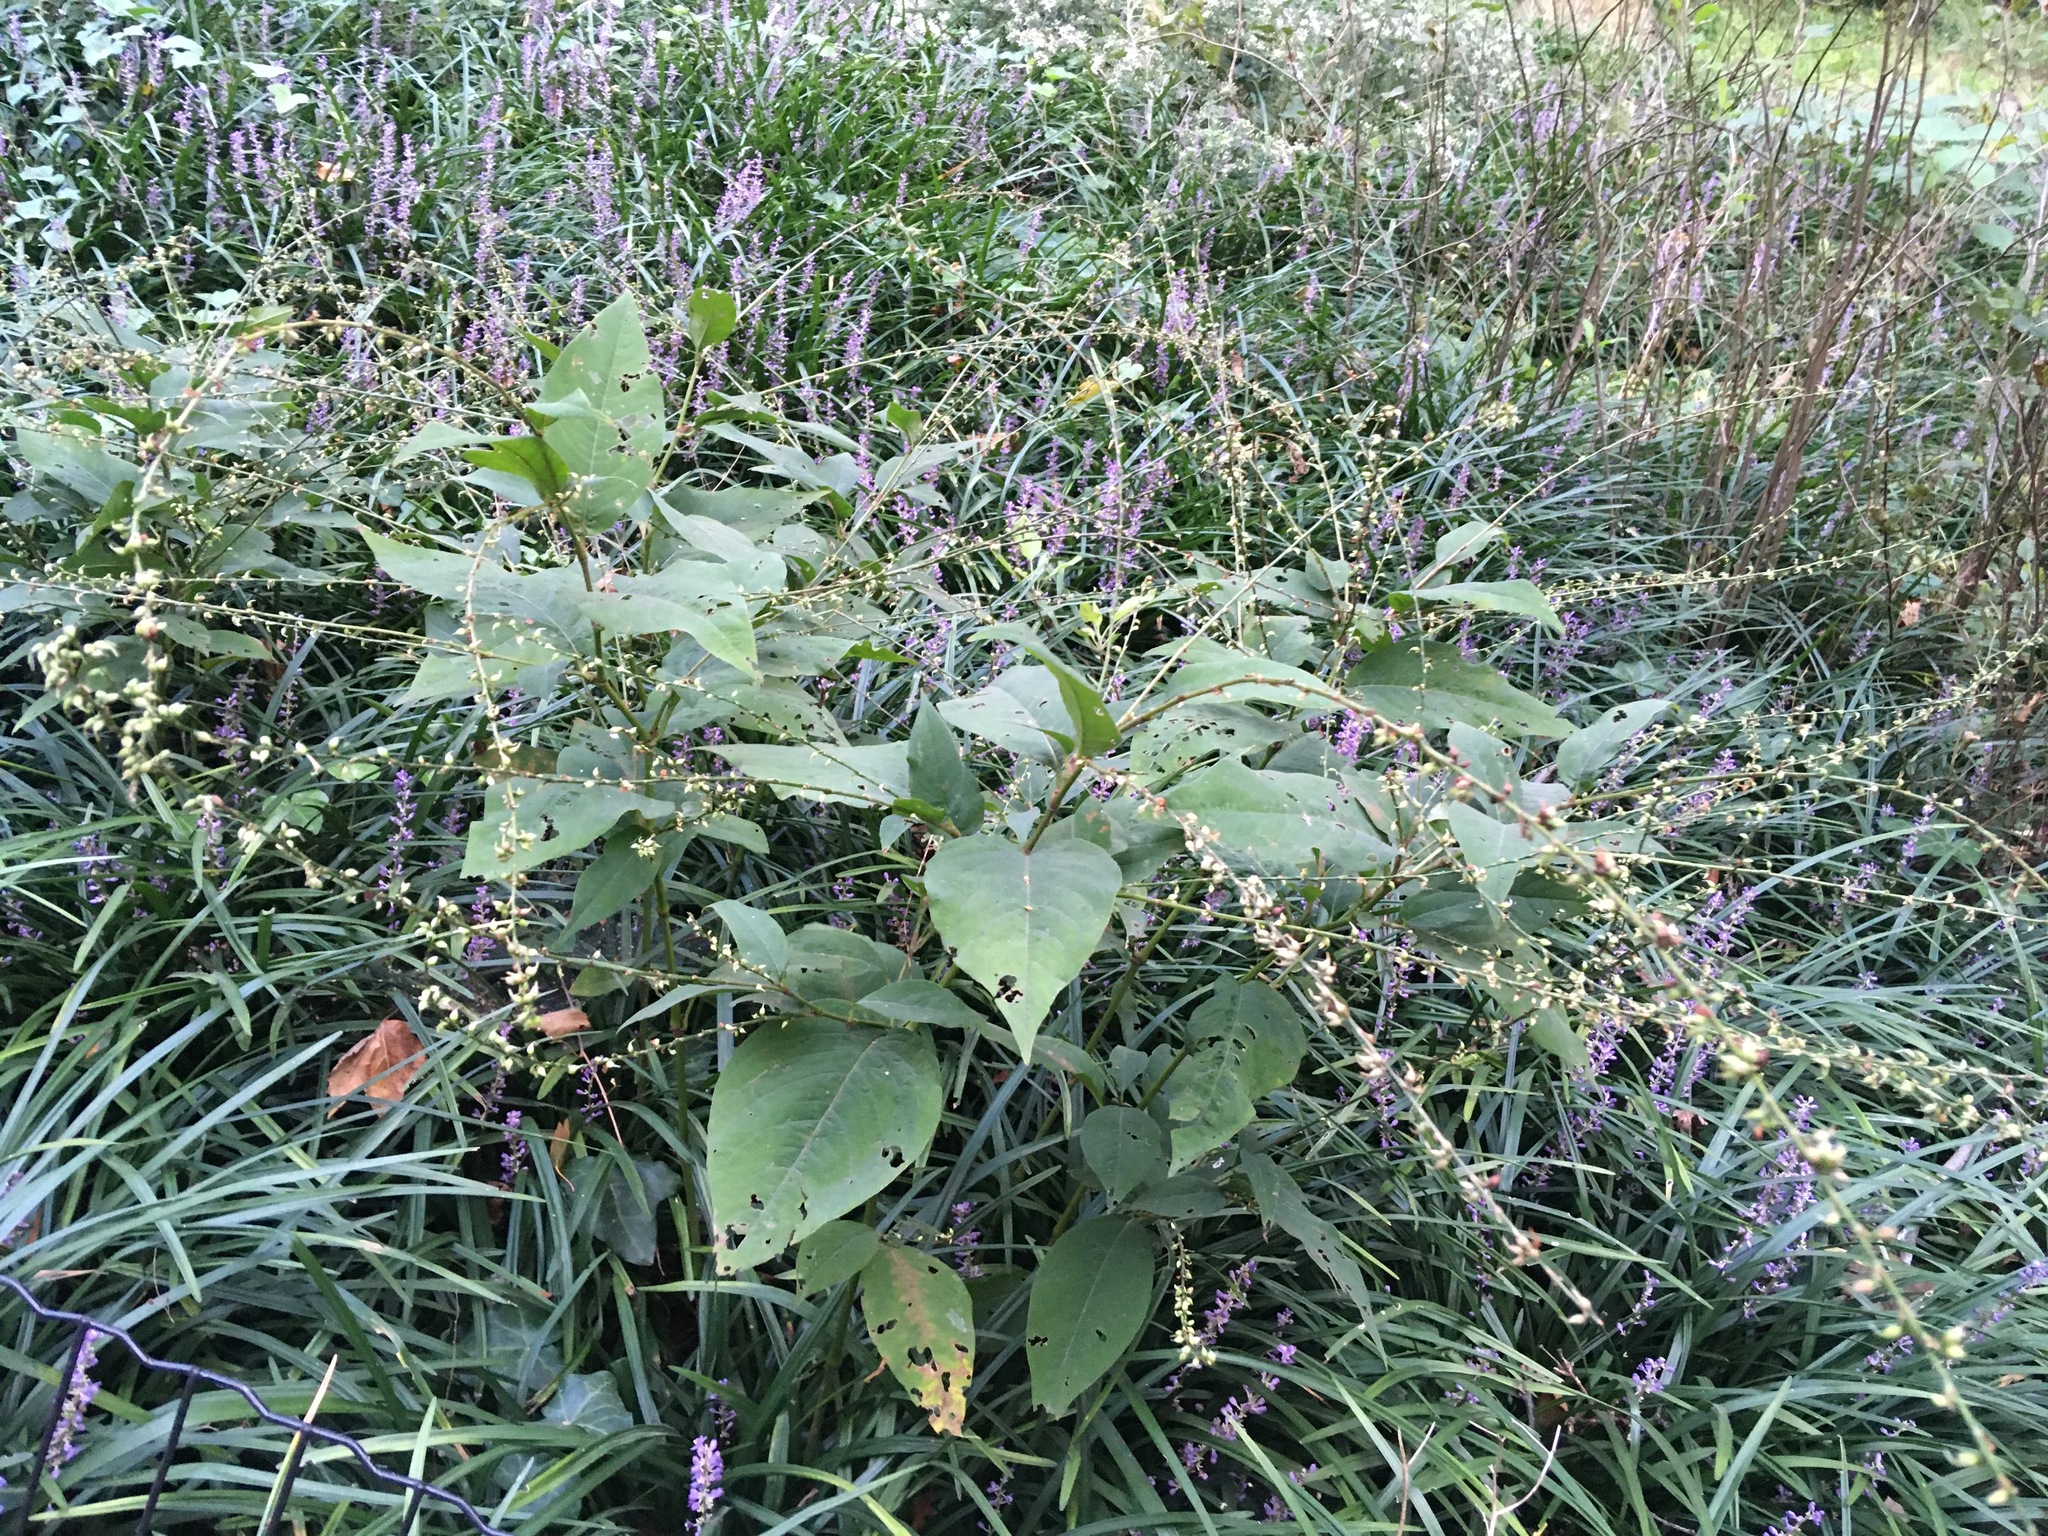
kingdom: Plantae
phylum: Tracheophyta
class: Magnoliopsida
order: Caryophyllales
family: Polygonaceae
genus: Persicaria
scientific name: Persicaria virginiana
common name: Jumpseed
